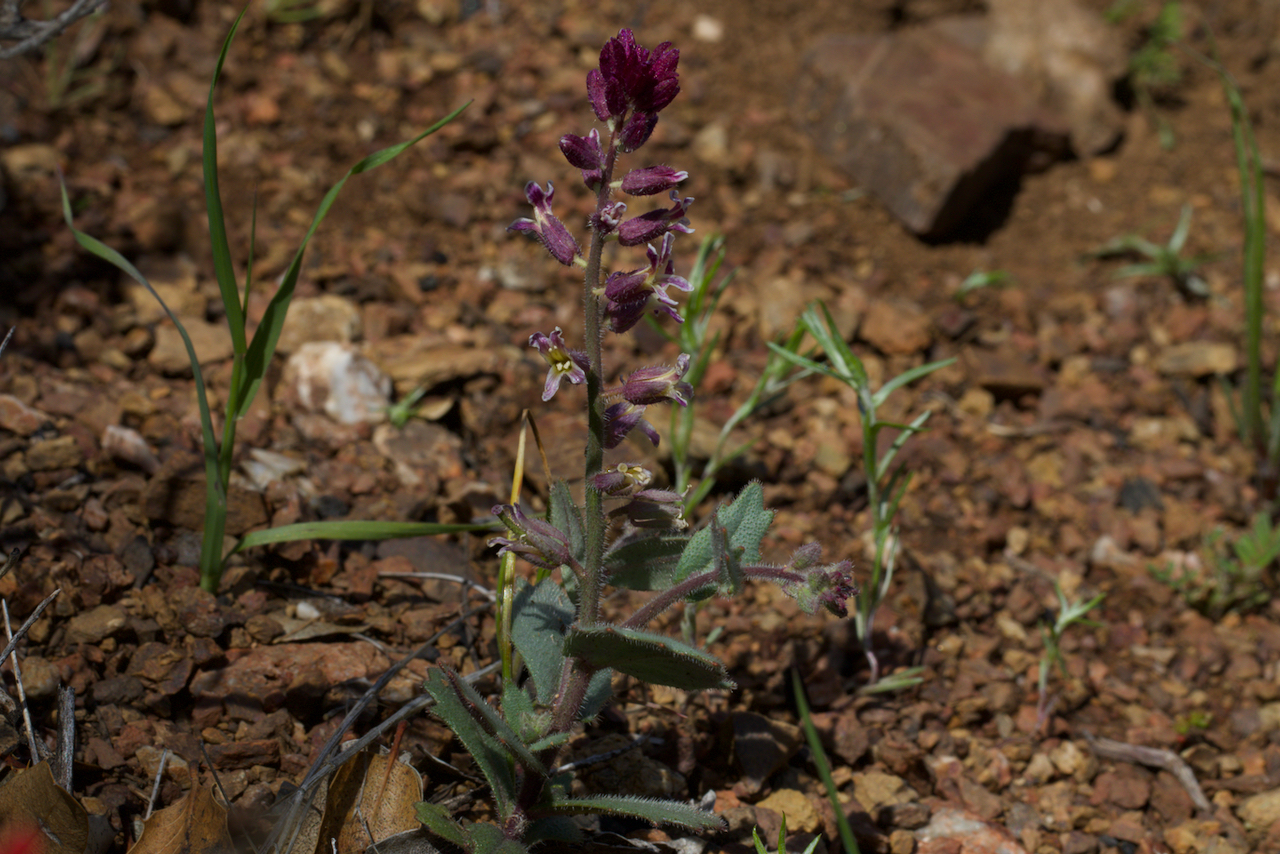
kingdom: Plantae
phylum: Tracheophyta
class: Magnoliopsida
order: Brassicales
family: Brassicaceae
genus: Streptanthus
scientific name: Streptanthus hispidus
